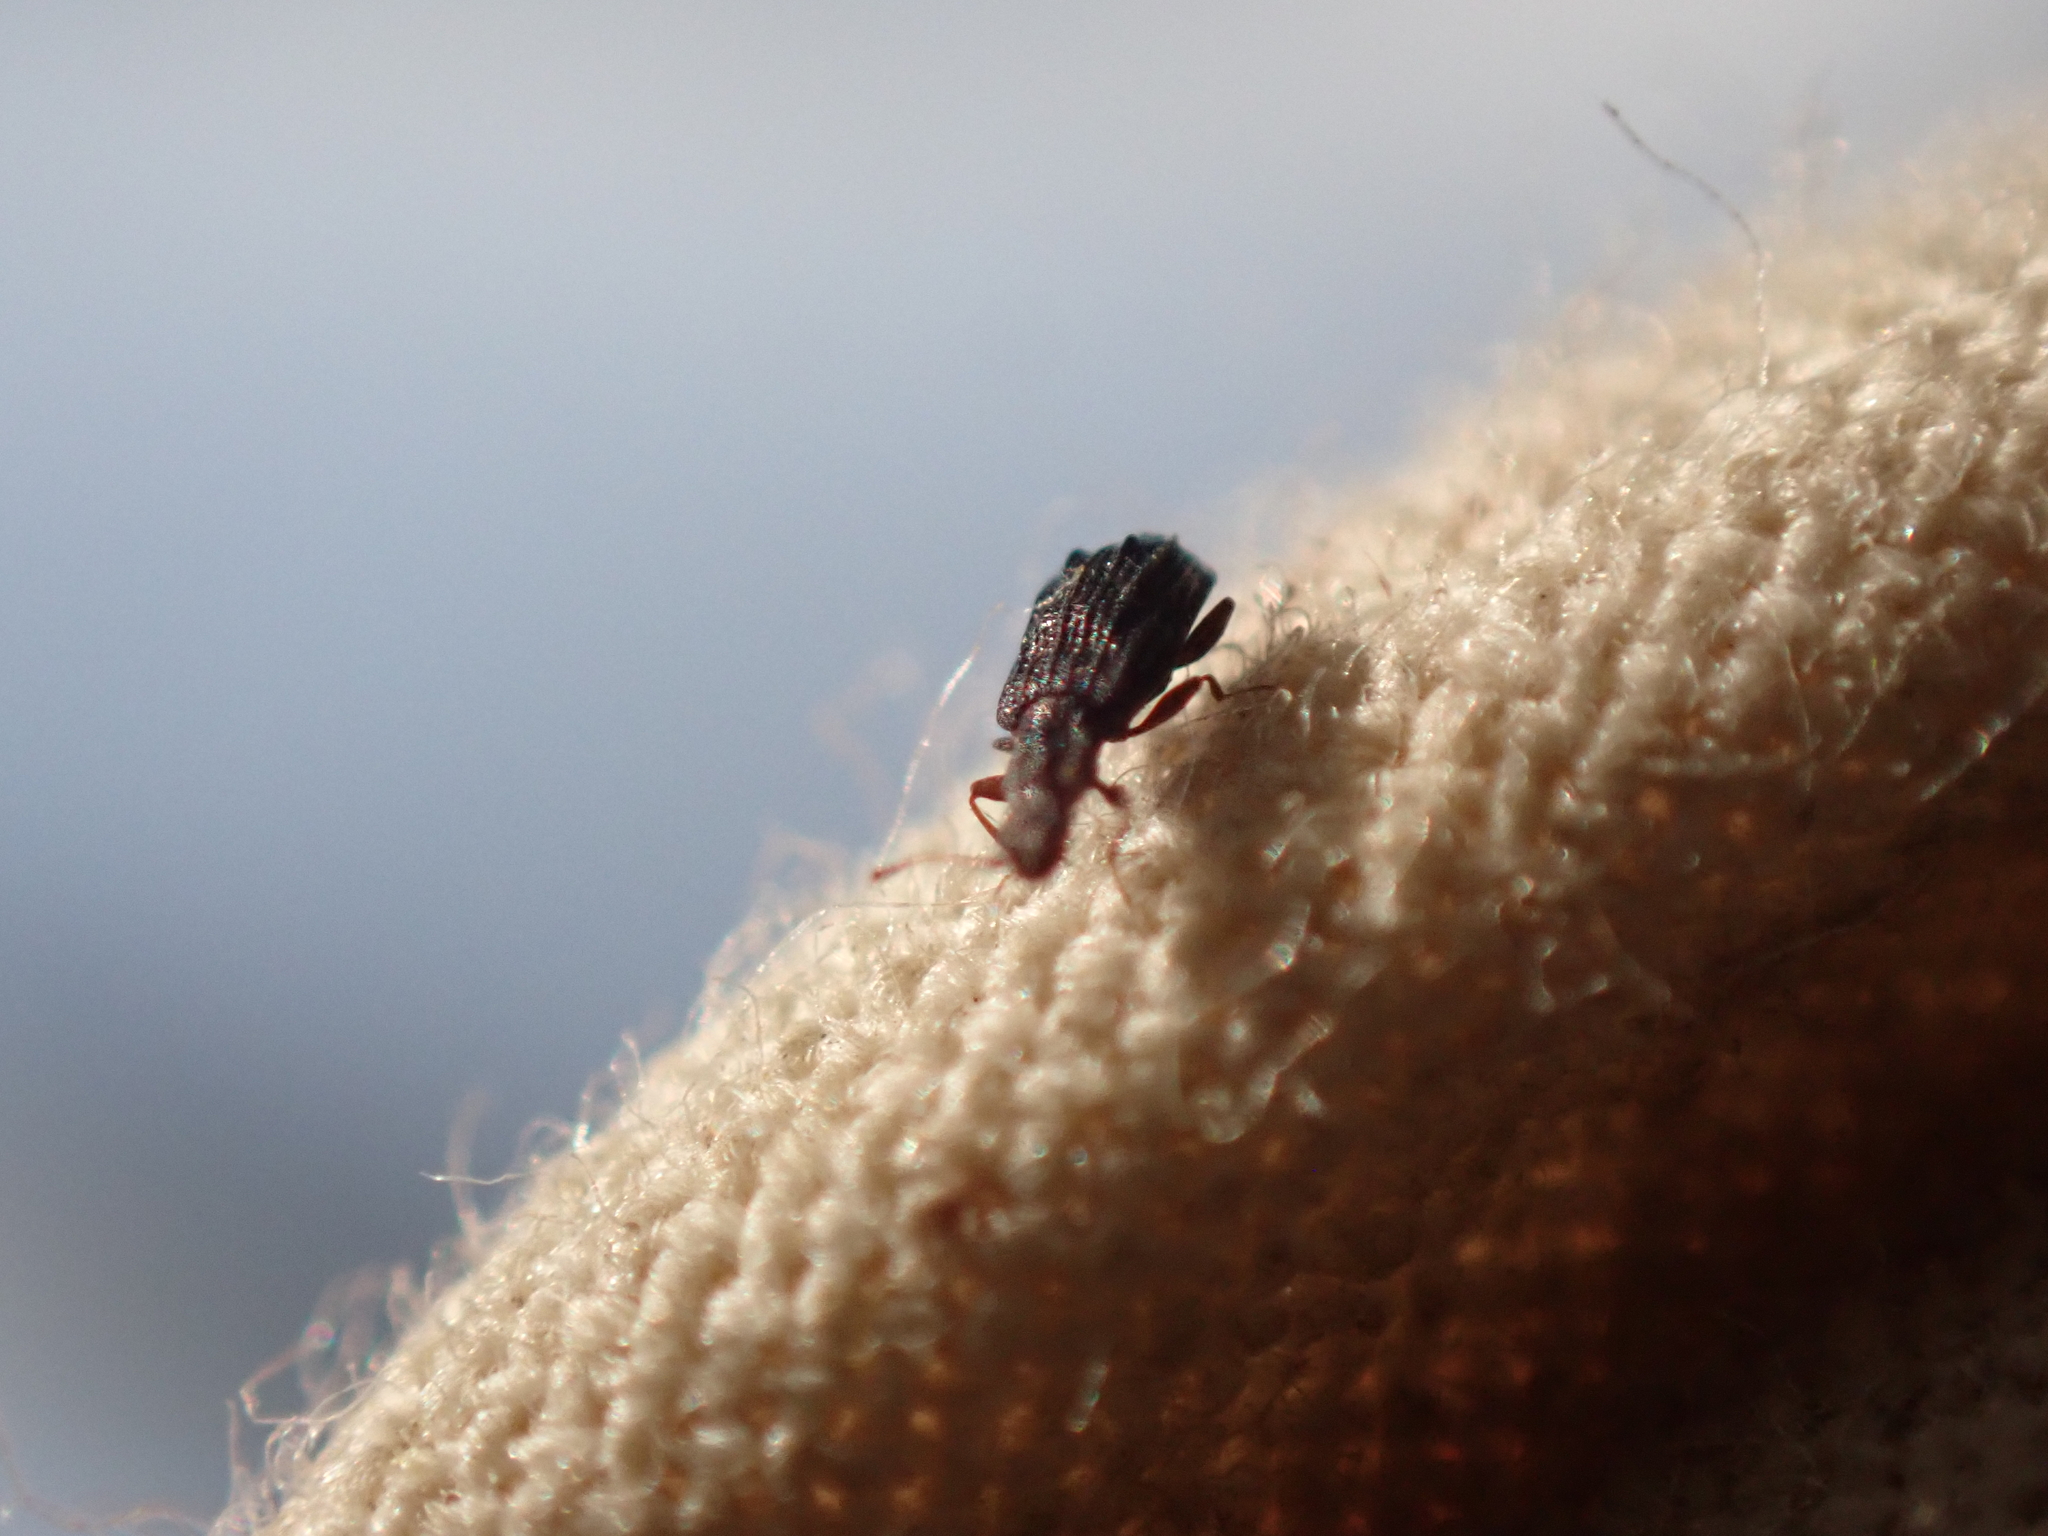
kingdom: Animalia
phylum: Arthropoda
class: Insecta
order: Coleoptera
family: Latridiidae
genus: Cartodere
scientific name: Cartodere nodifer
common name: Humpbacked minute scavenger beetle
